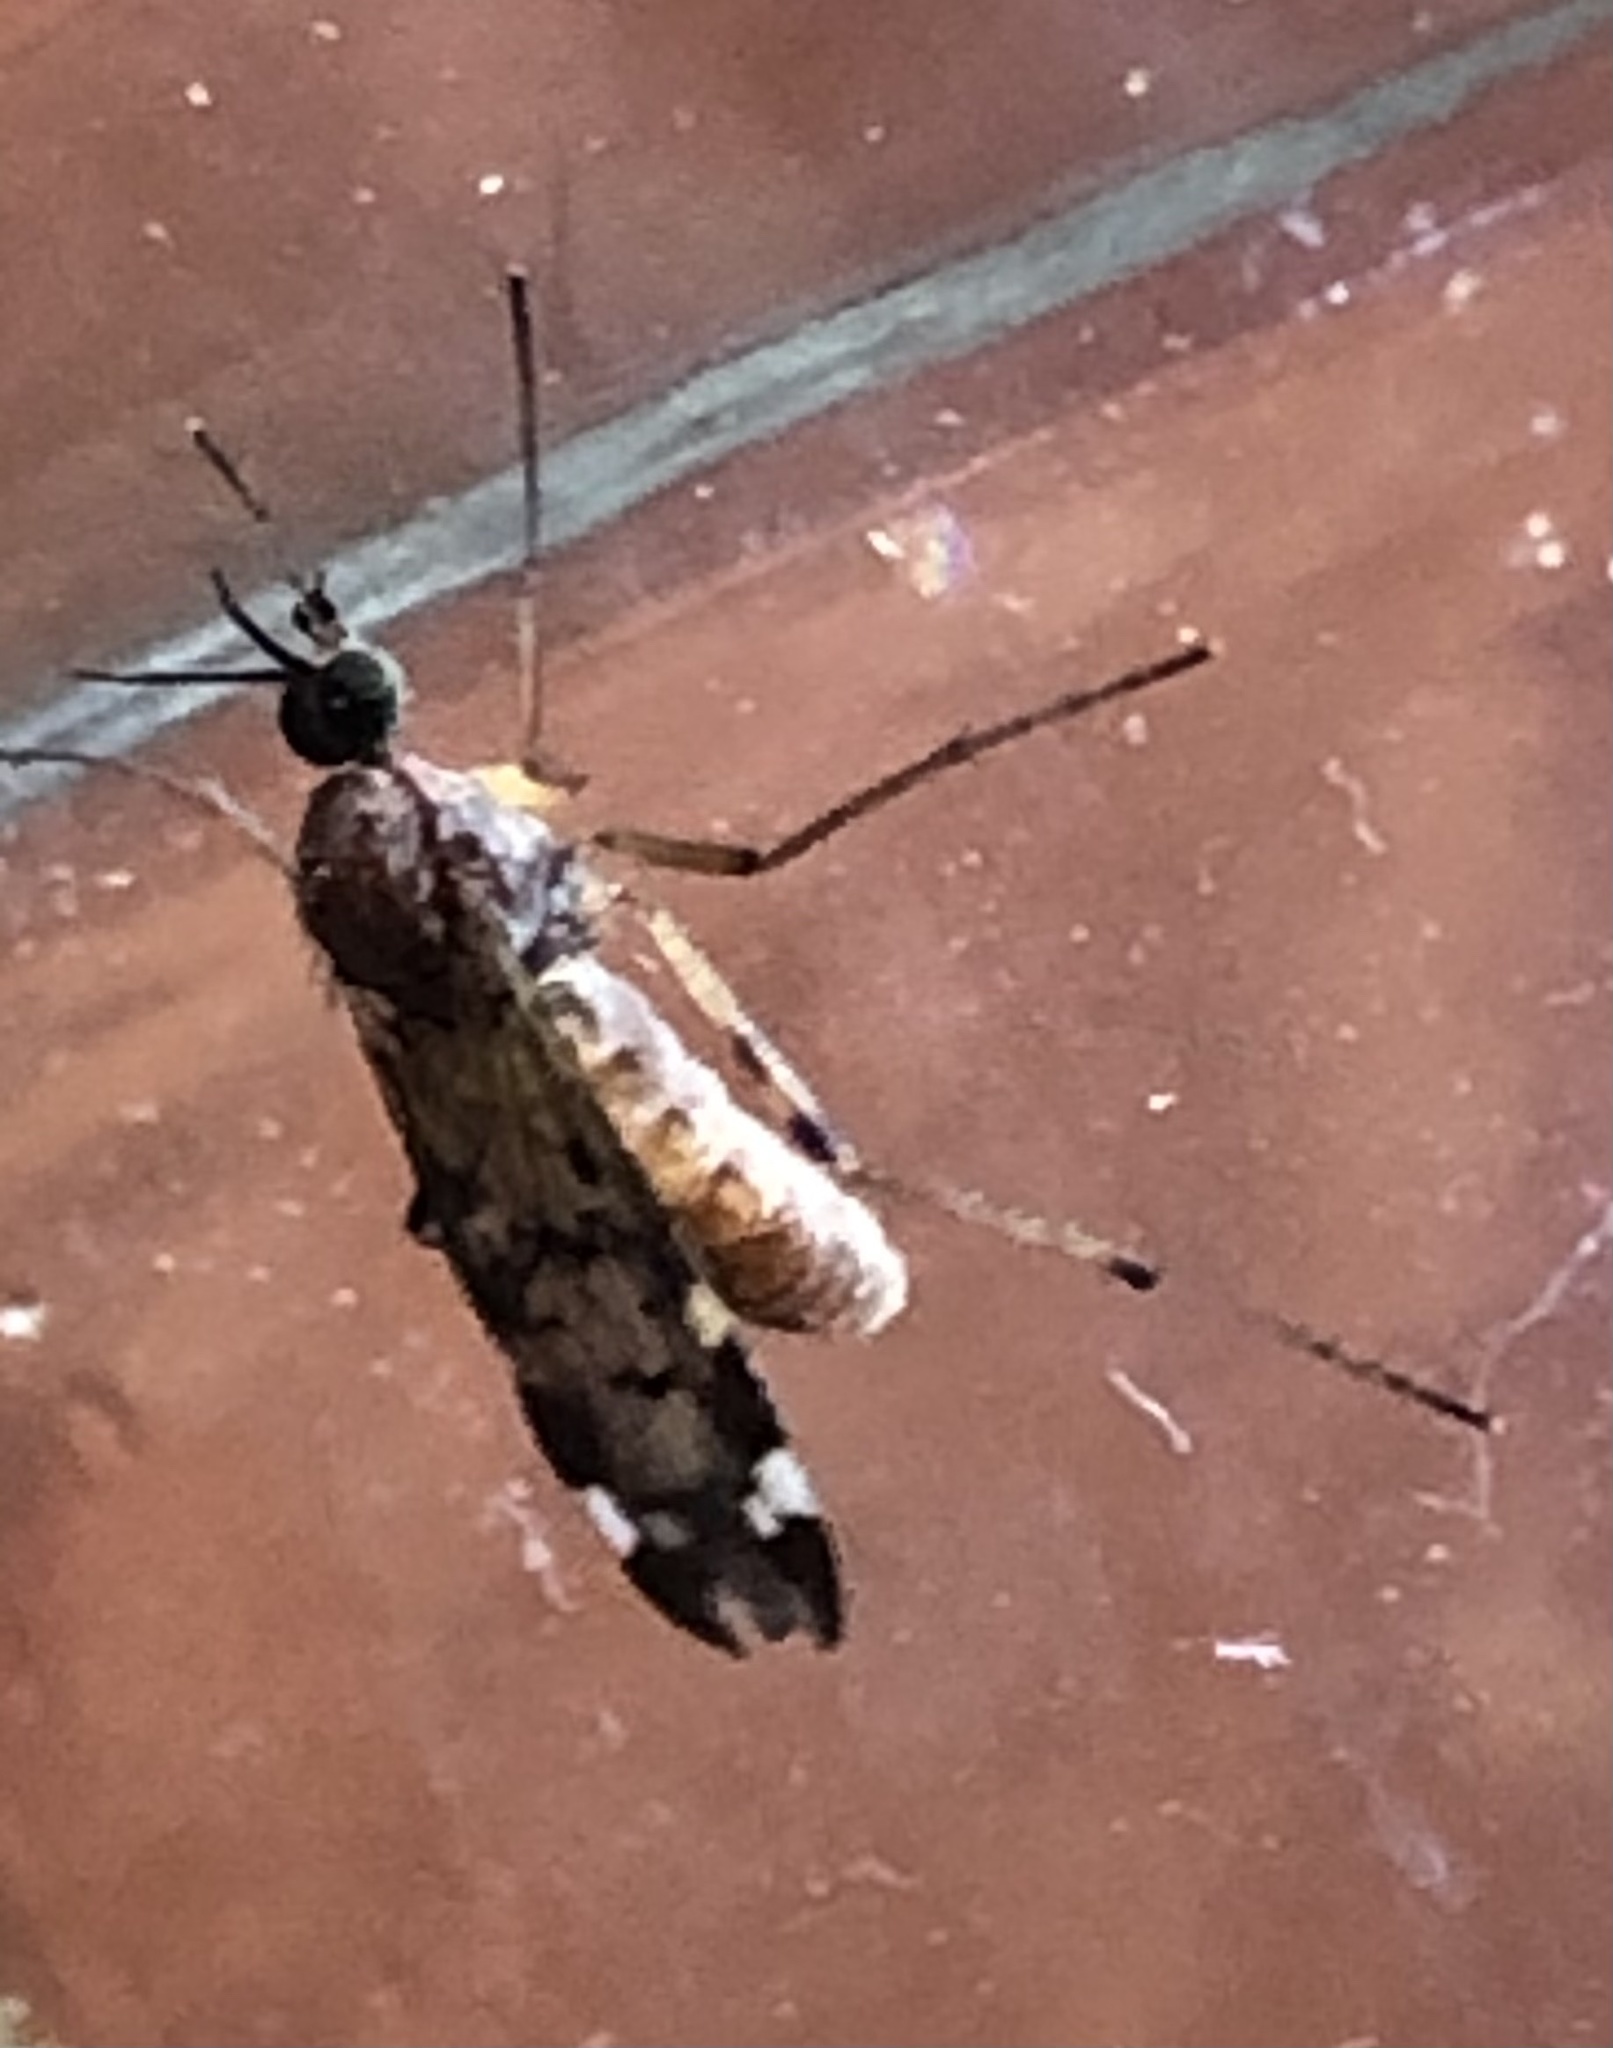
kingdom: Animalia
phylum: Arthropoda
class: Insecta
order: Diptera
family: Anisopodidae
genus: Sylvicola
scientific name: Sylvicola alternata
